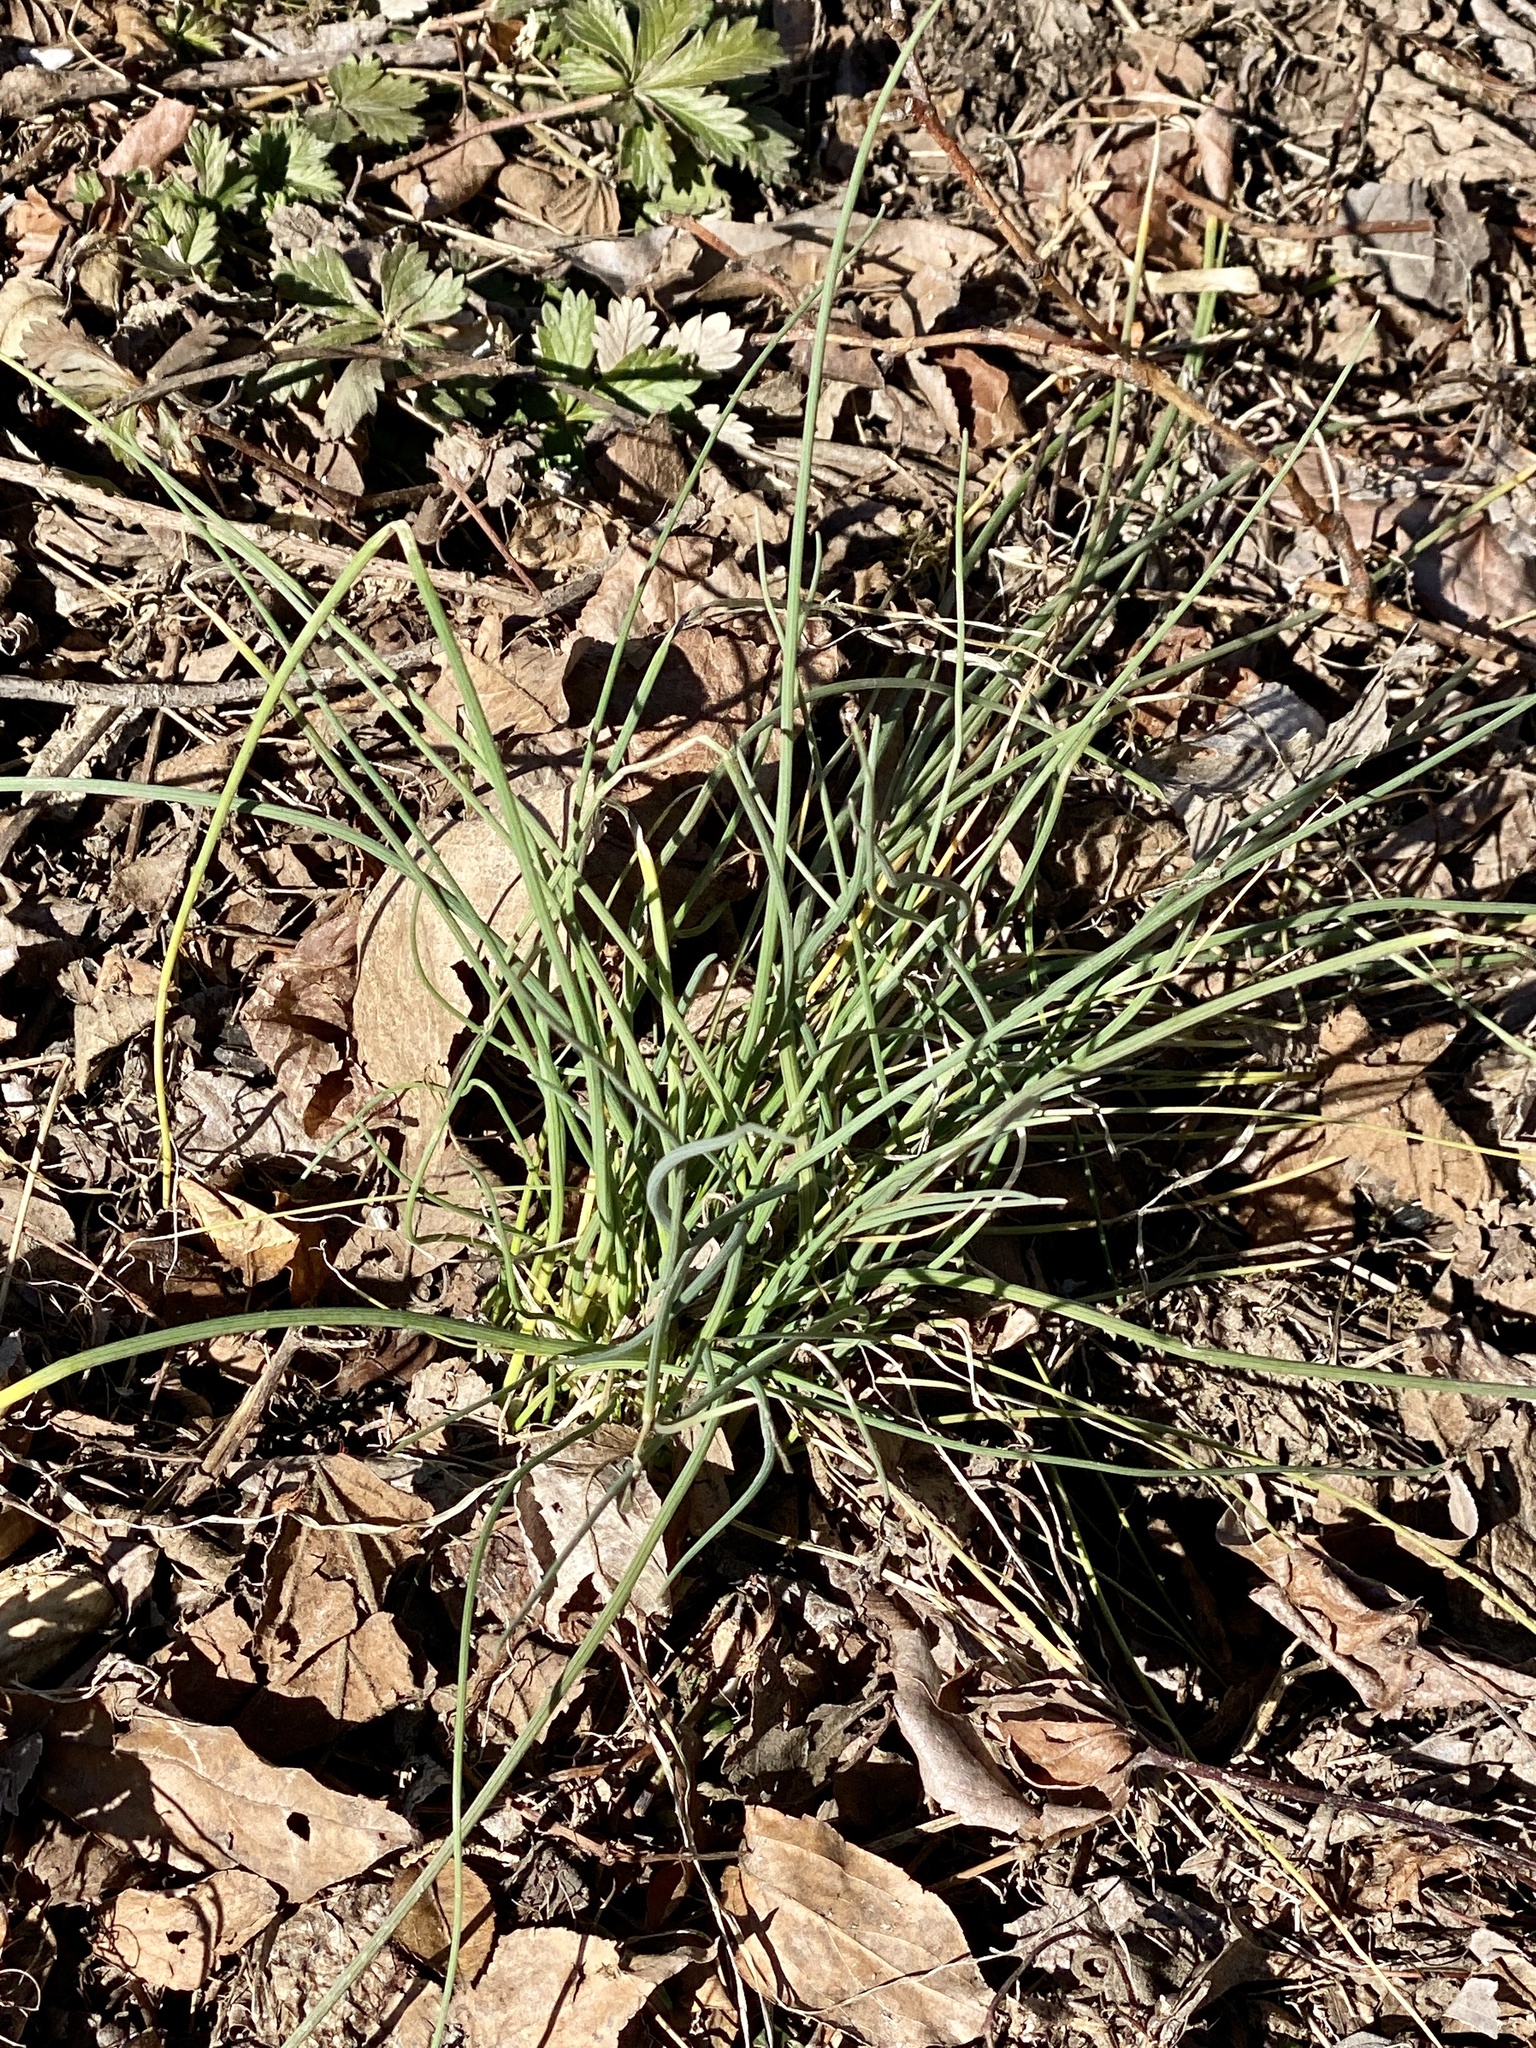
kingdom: Plantae
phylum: Tracheophyta
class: Liliopsida
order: Asparagales
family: Amaryllidaceae
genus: Allium
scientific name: Allium vineale
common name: Crow garlic
